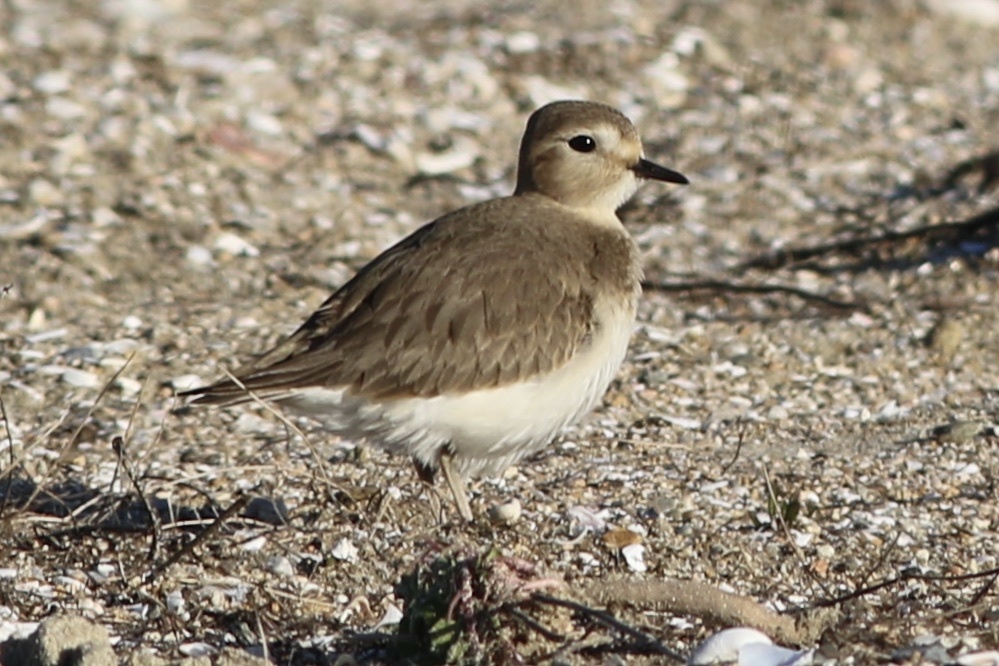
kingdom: Animalia
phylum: Chordata
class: Aves
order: Charadriiformes
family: Charadriidae
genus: Anarhynchus
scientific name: Anarhynchus
